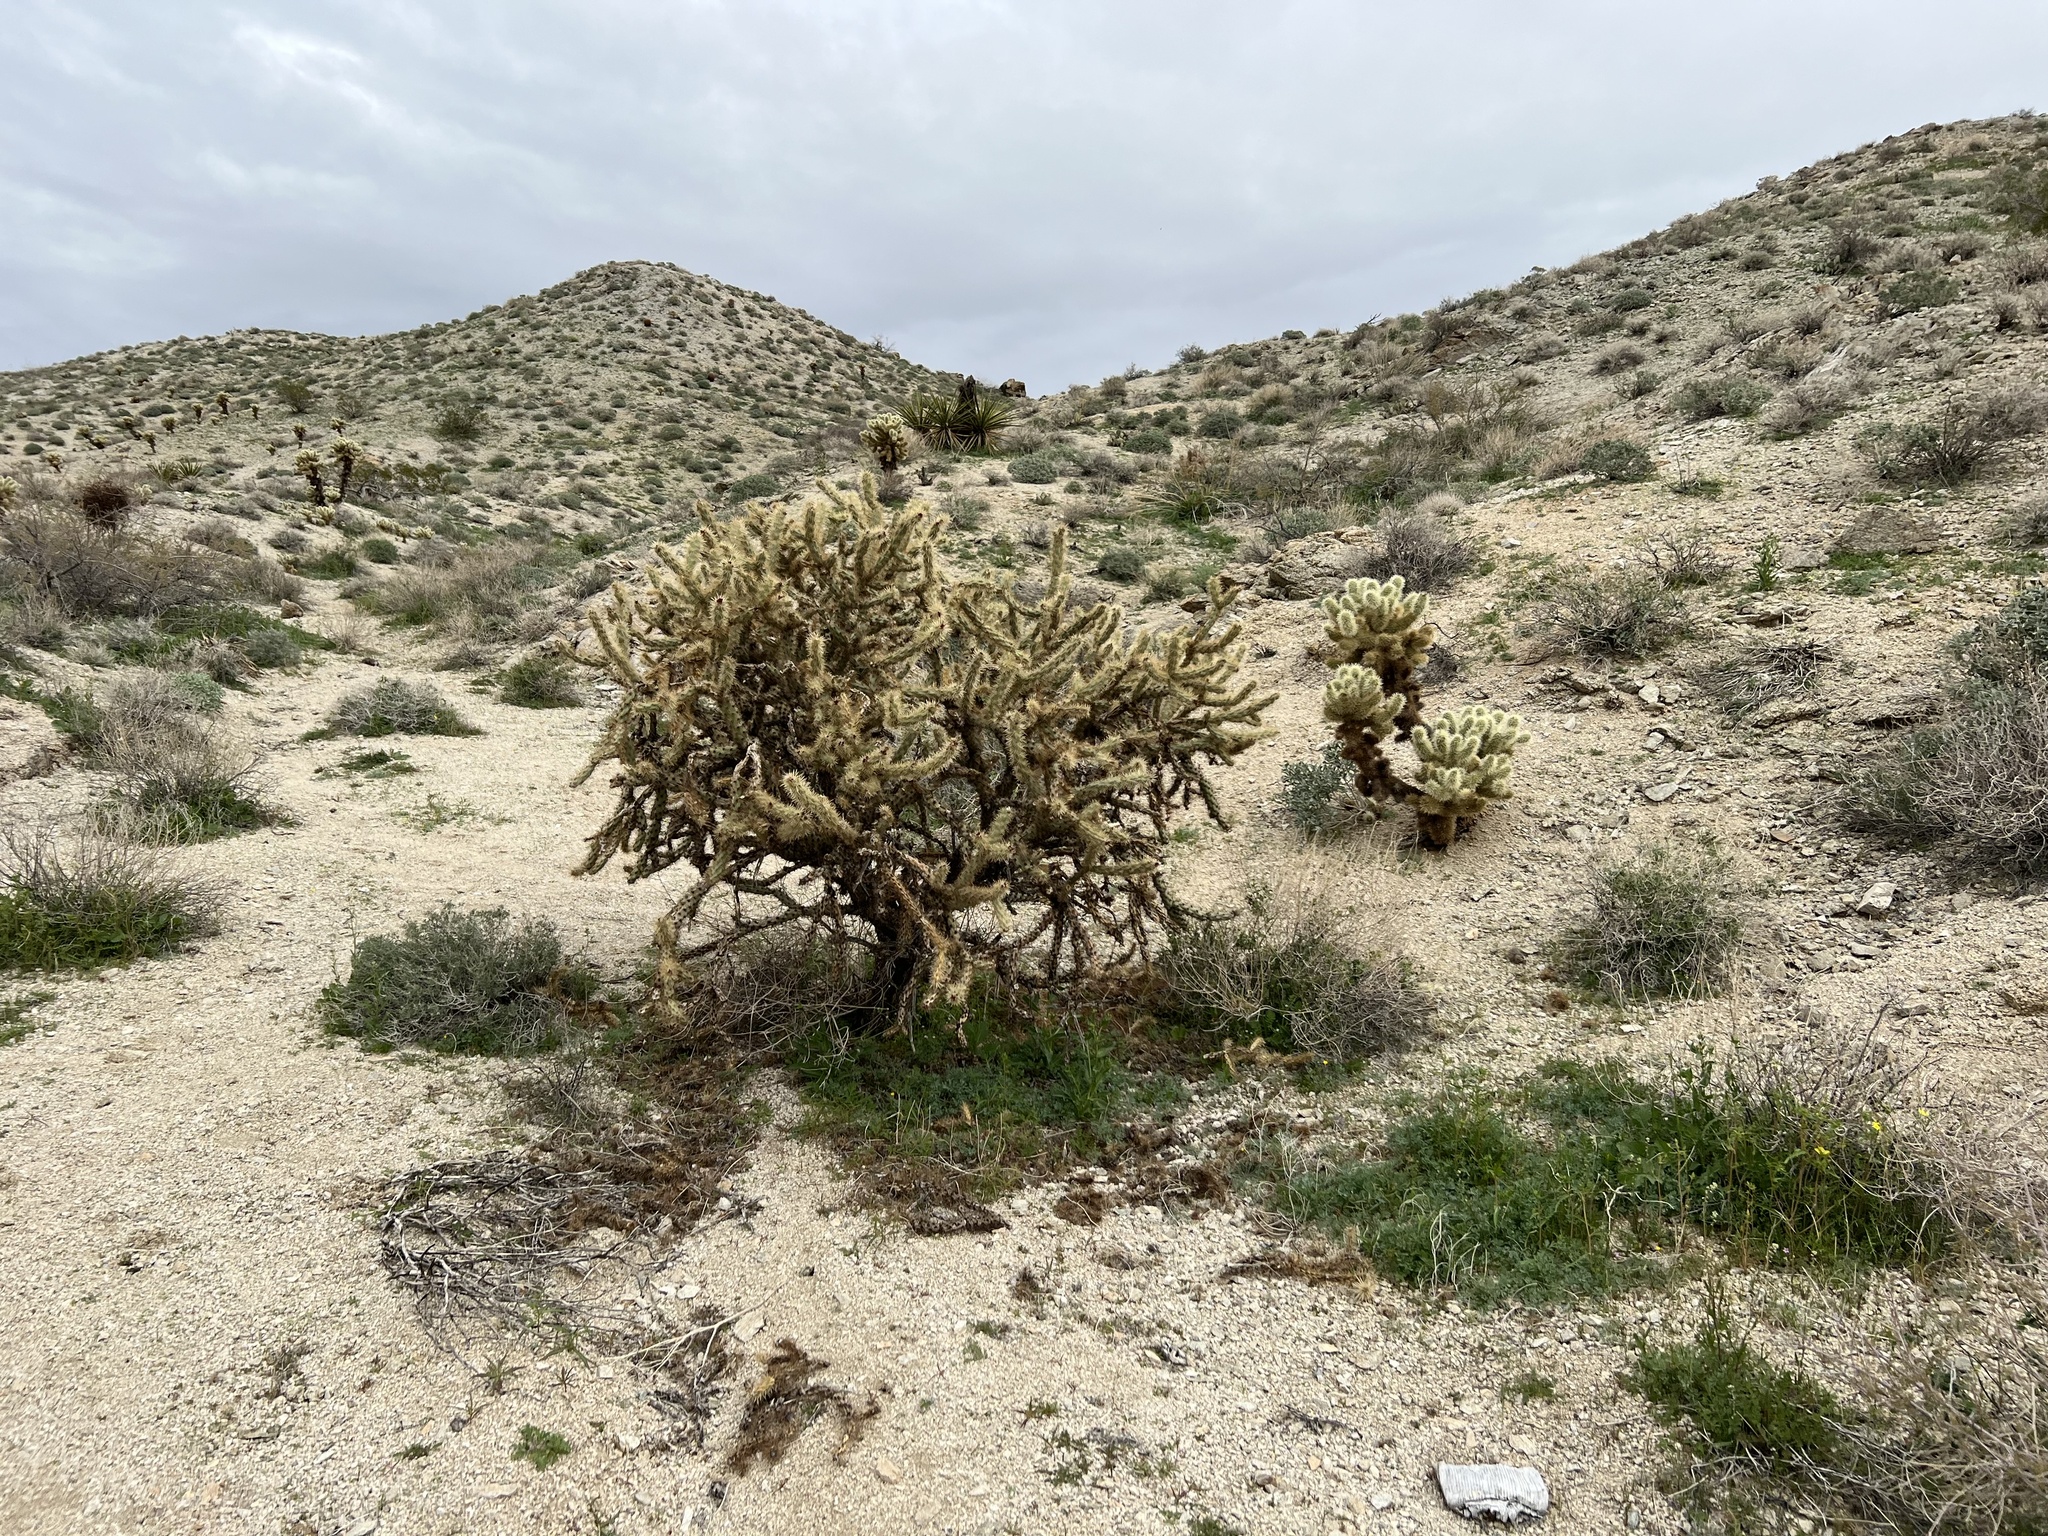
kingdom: Plantae
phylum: Tracheophyta
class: Magnoliopsida
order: Caryophyllales
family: Cactaceae
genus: Cylindropuntia
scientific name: Cylindropuntia acanthocarpa
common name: Buckhorn cholla
